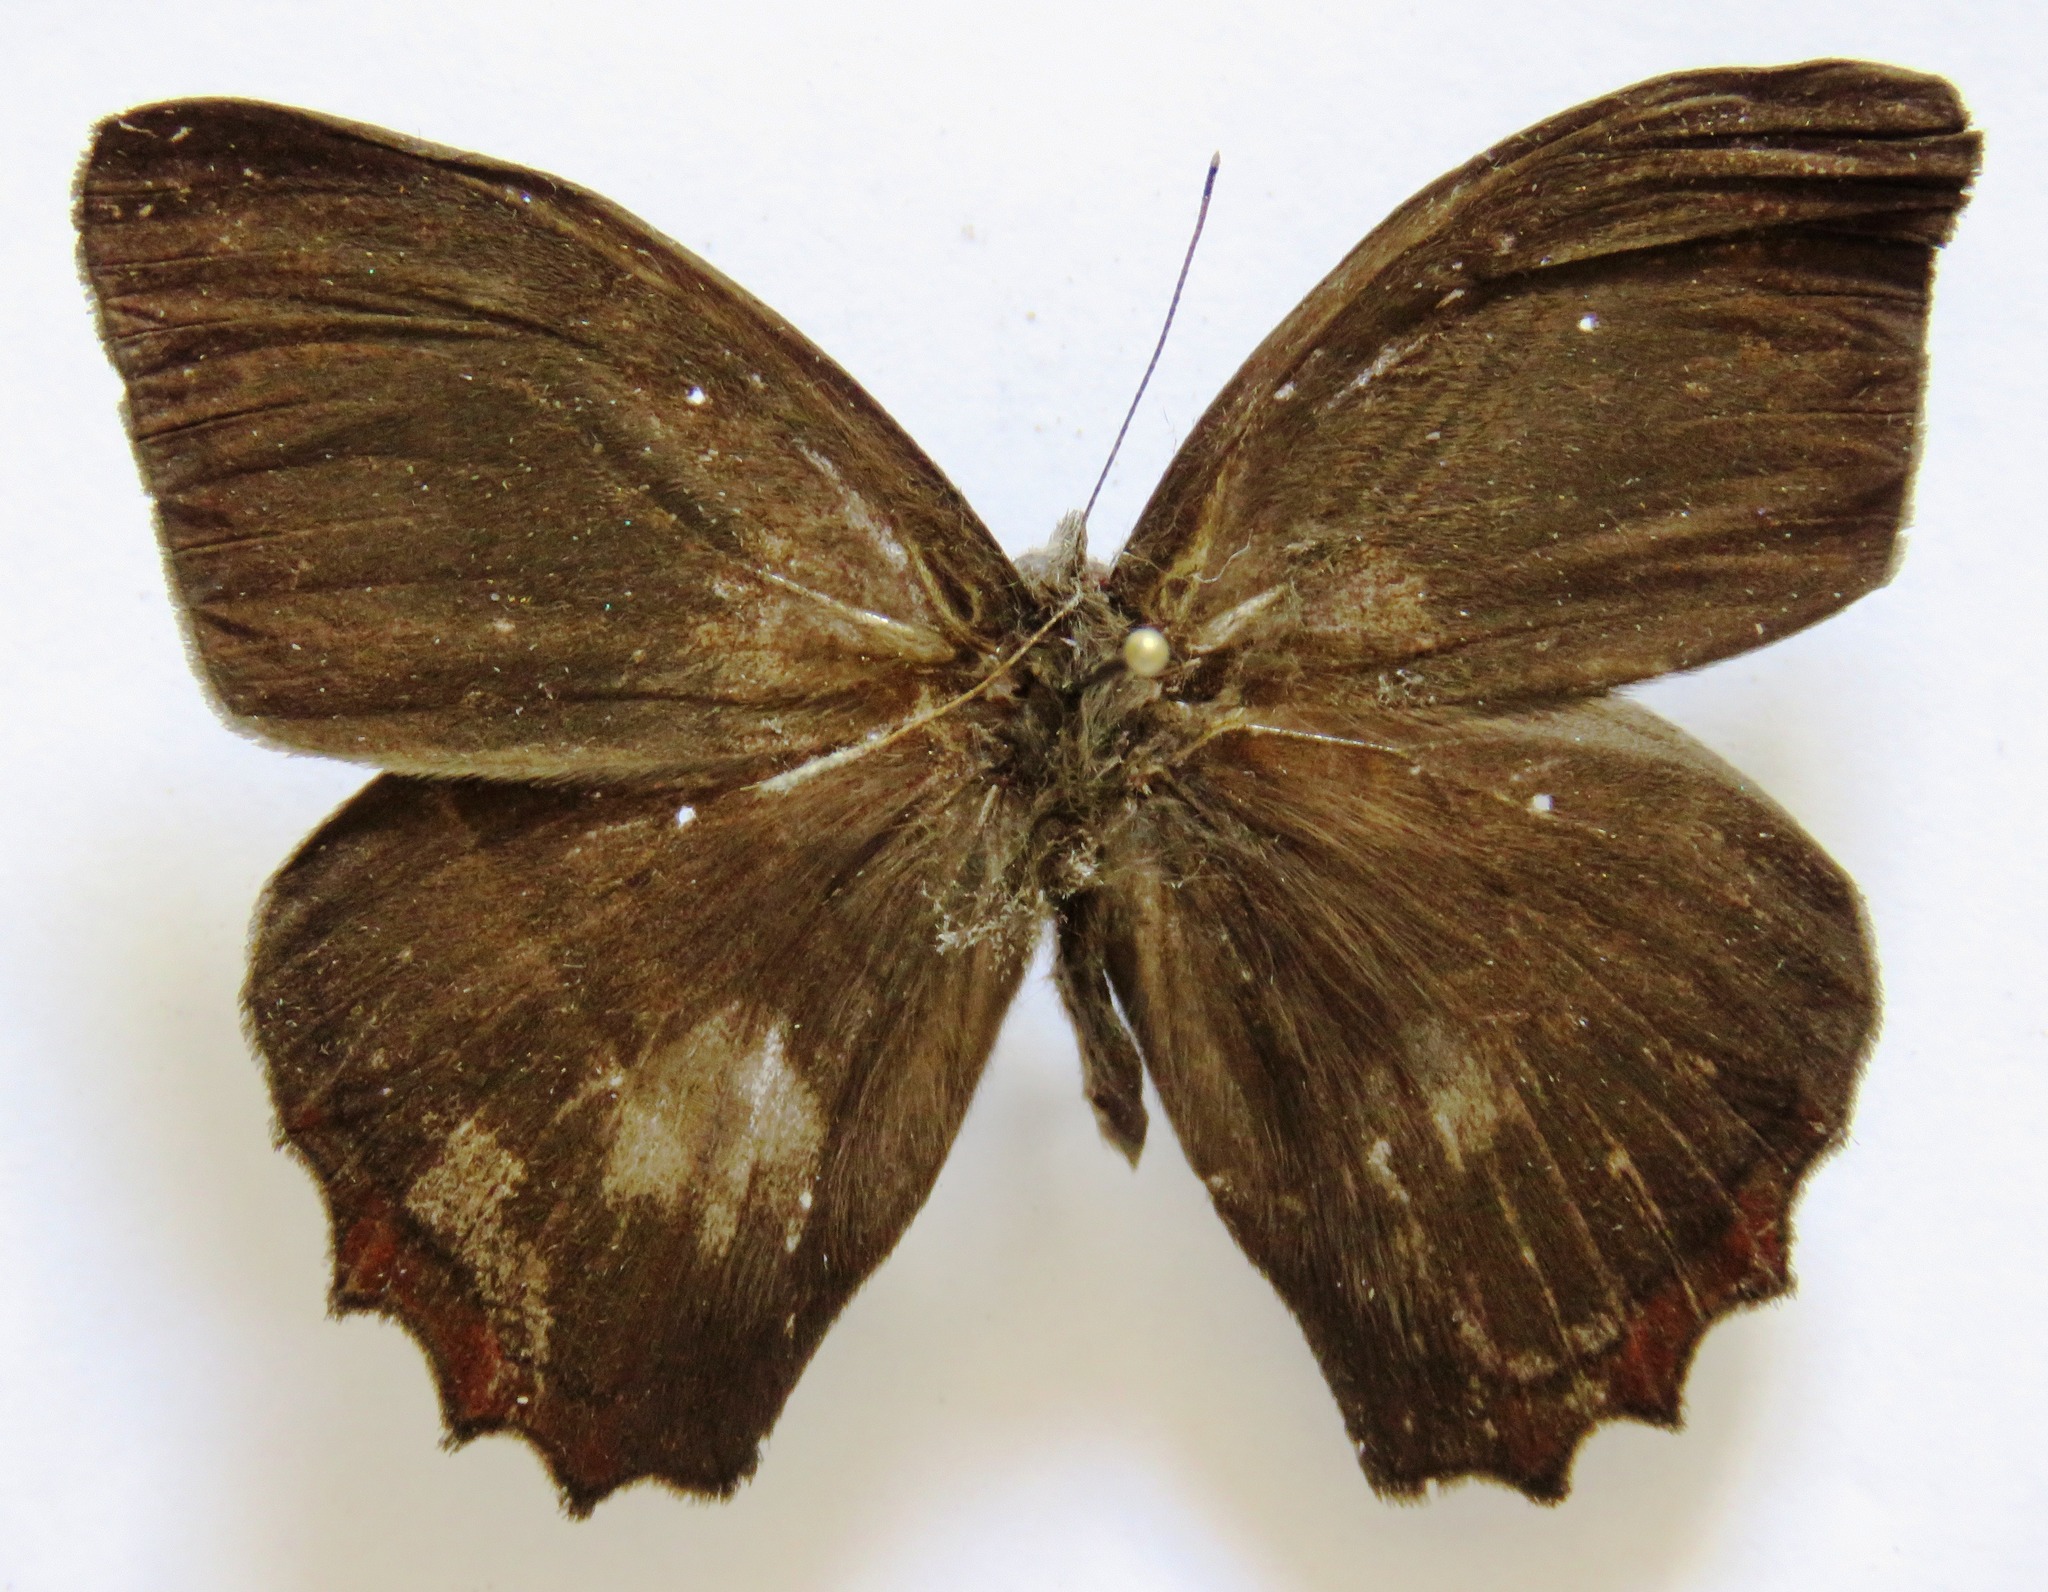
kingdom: Animalia
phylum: Arthropoda
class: Insecta
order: Lepidoptera
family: Nymphalidae
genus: Taygetis
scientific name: Taygetis salvini
